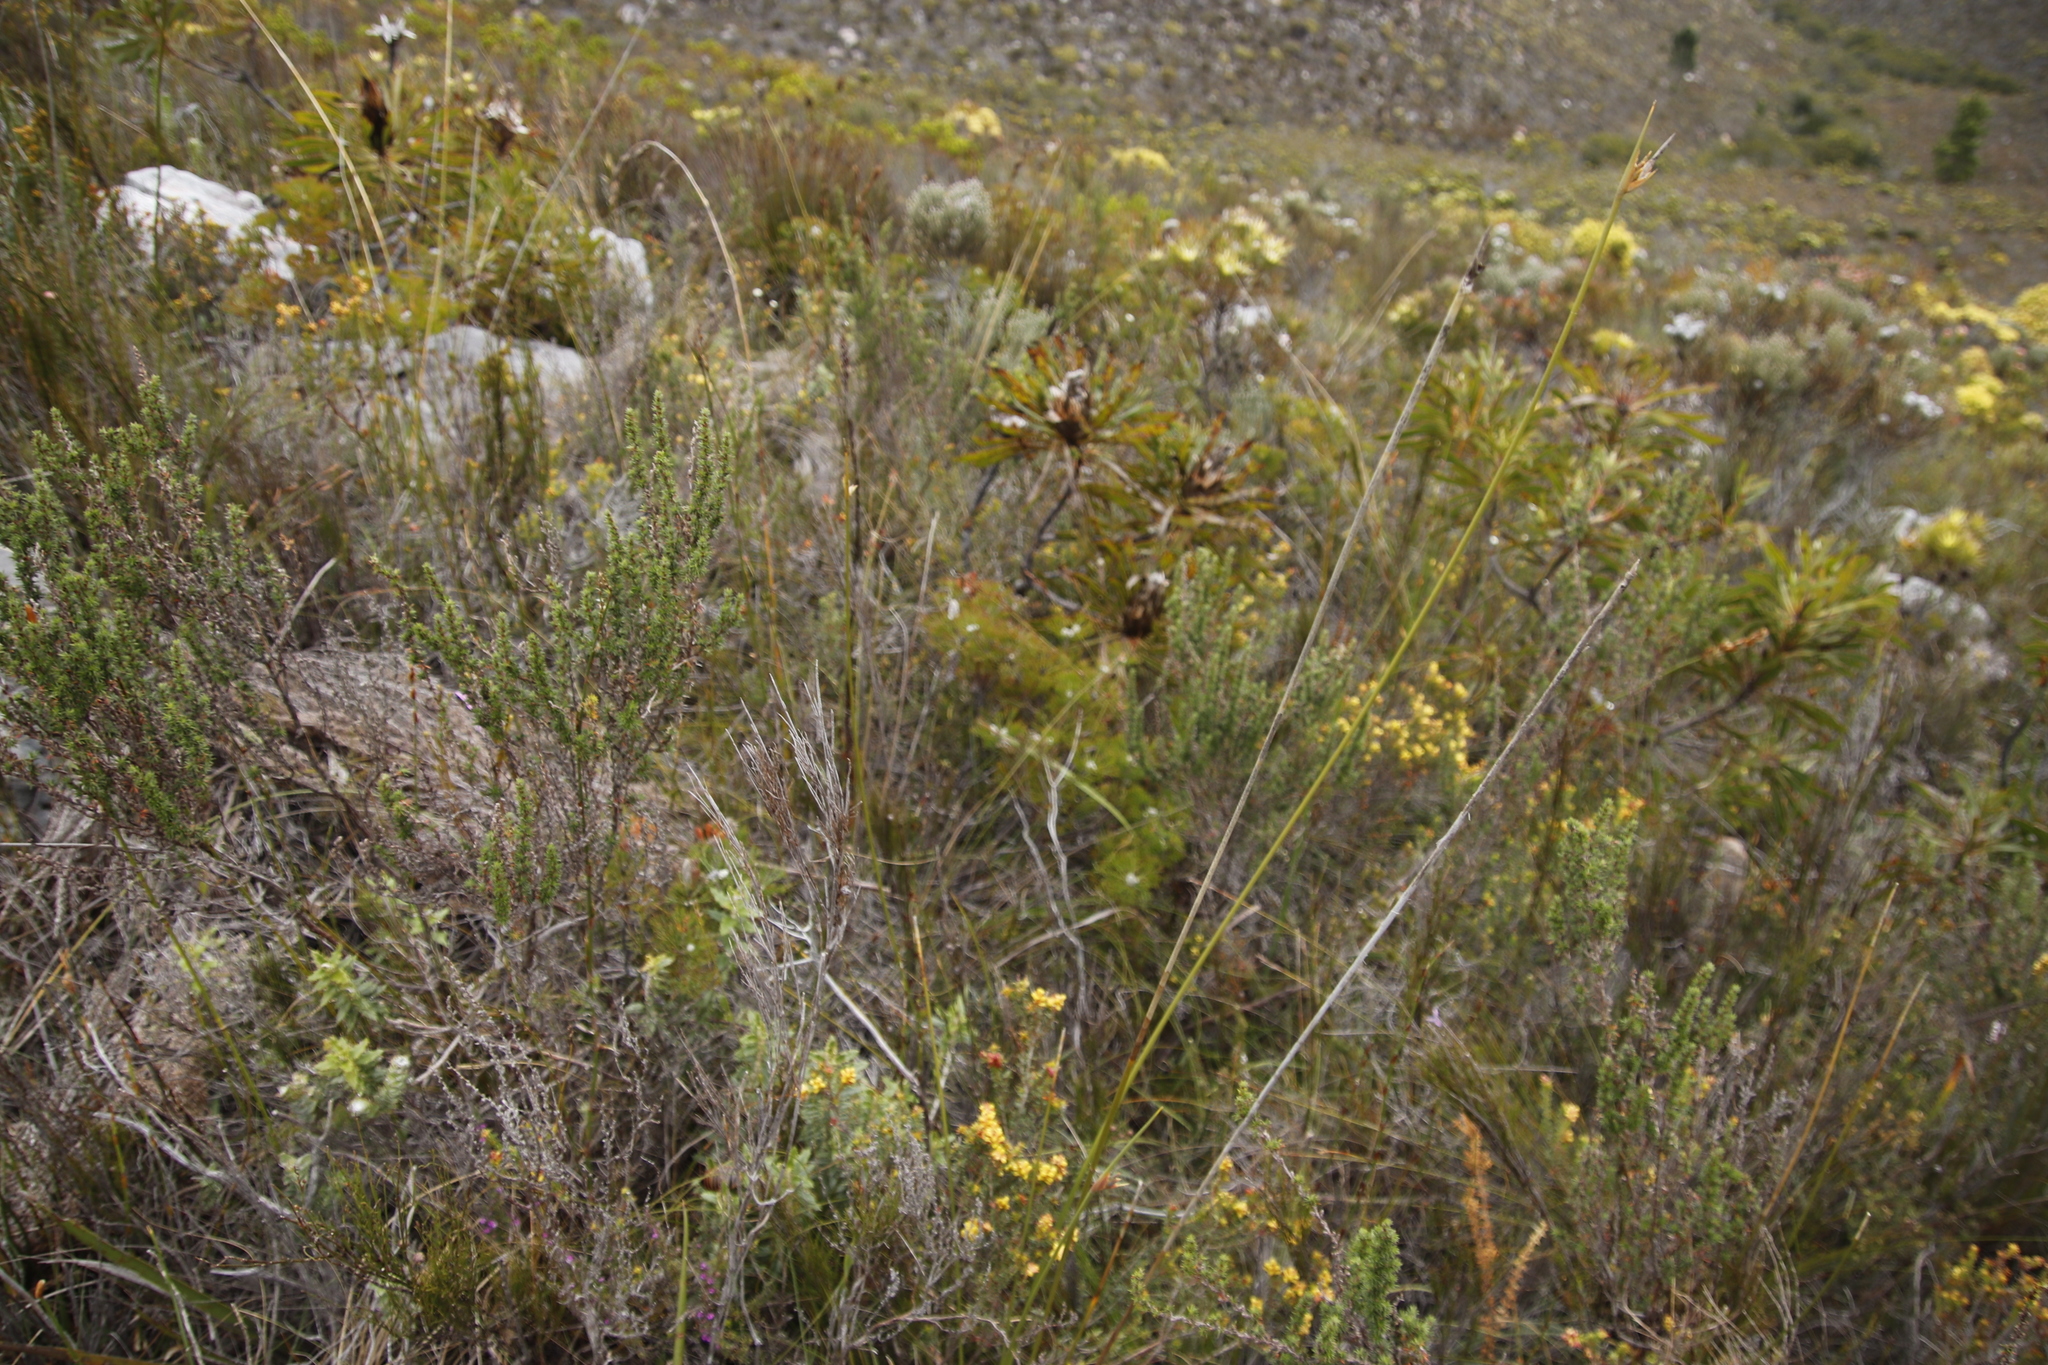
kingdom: Plantae
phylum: Tracheophyta
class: Magnoliopsida
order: Proteales
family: Proteaceae
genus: Protea
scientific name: Protea longifolia
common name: Long-leaf sugarbush
